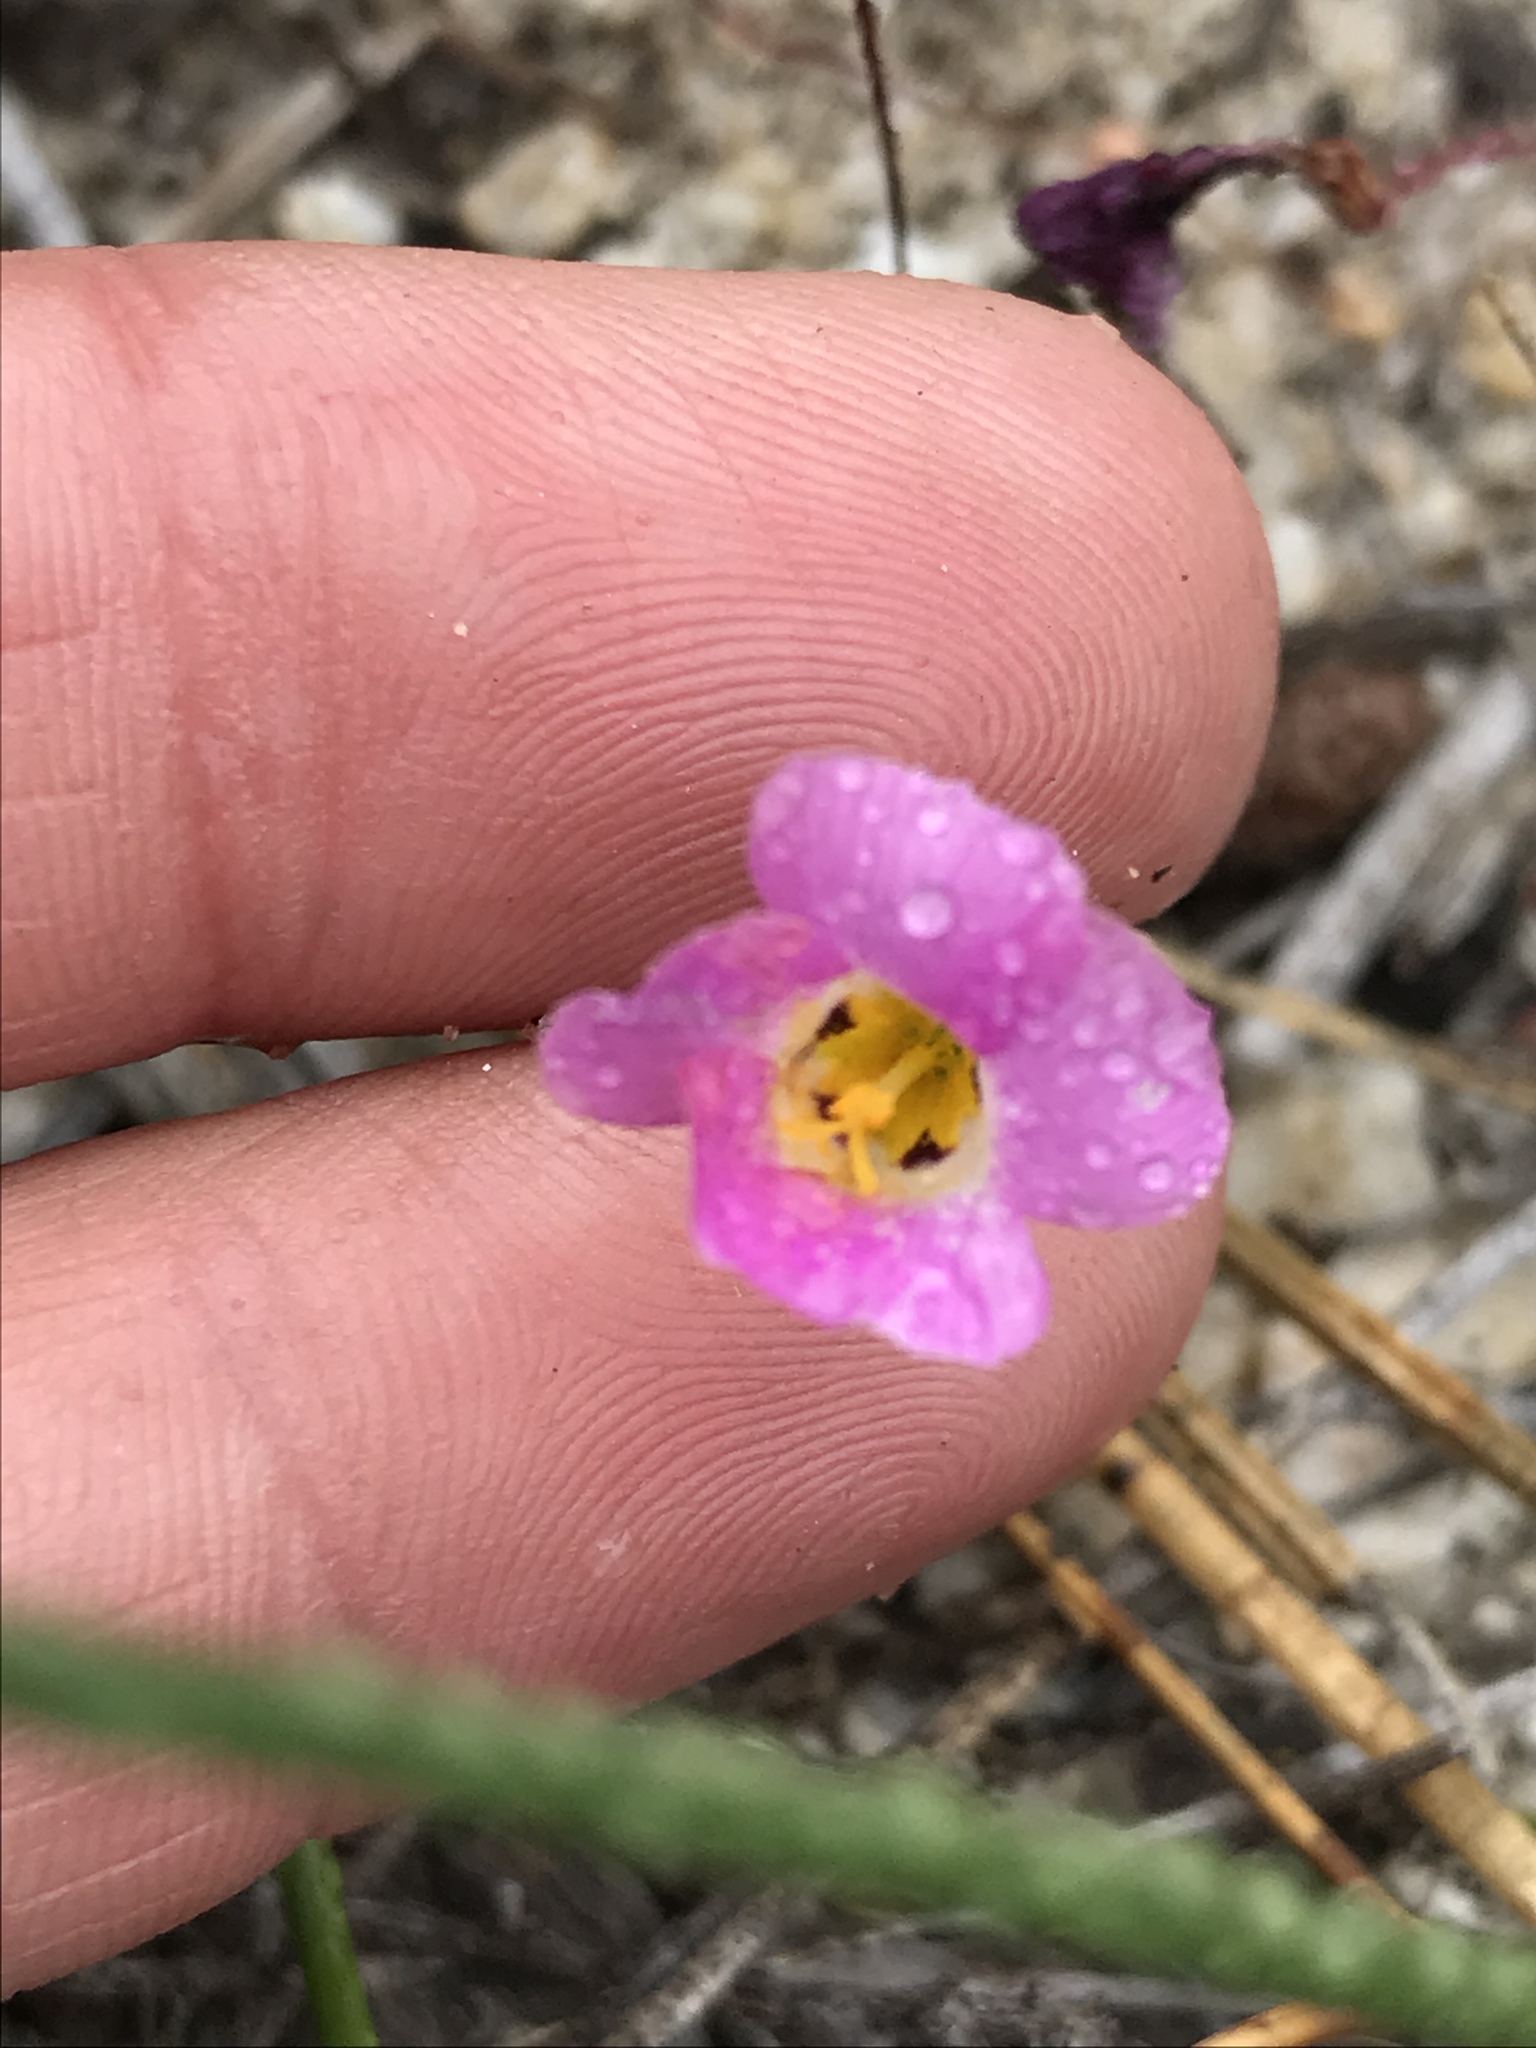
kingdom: Plantae
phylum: Tracheophyta
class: Magnoliopsida
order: Ericales
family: Polemoniaceae
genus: Linanthus
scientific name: Linanthus bellus
